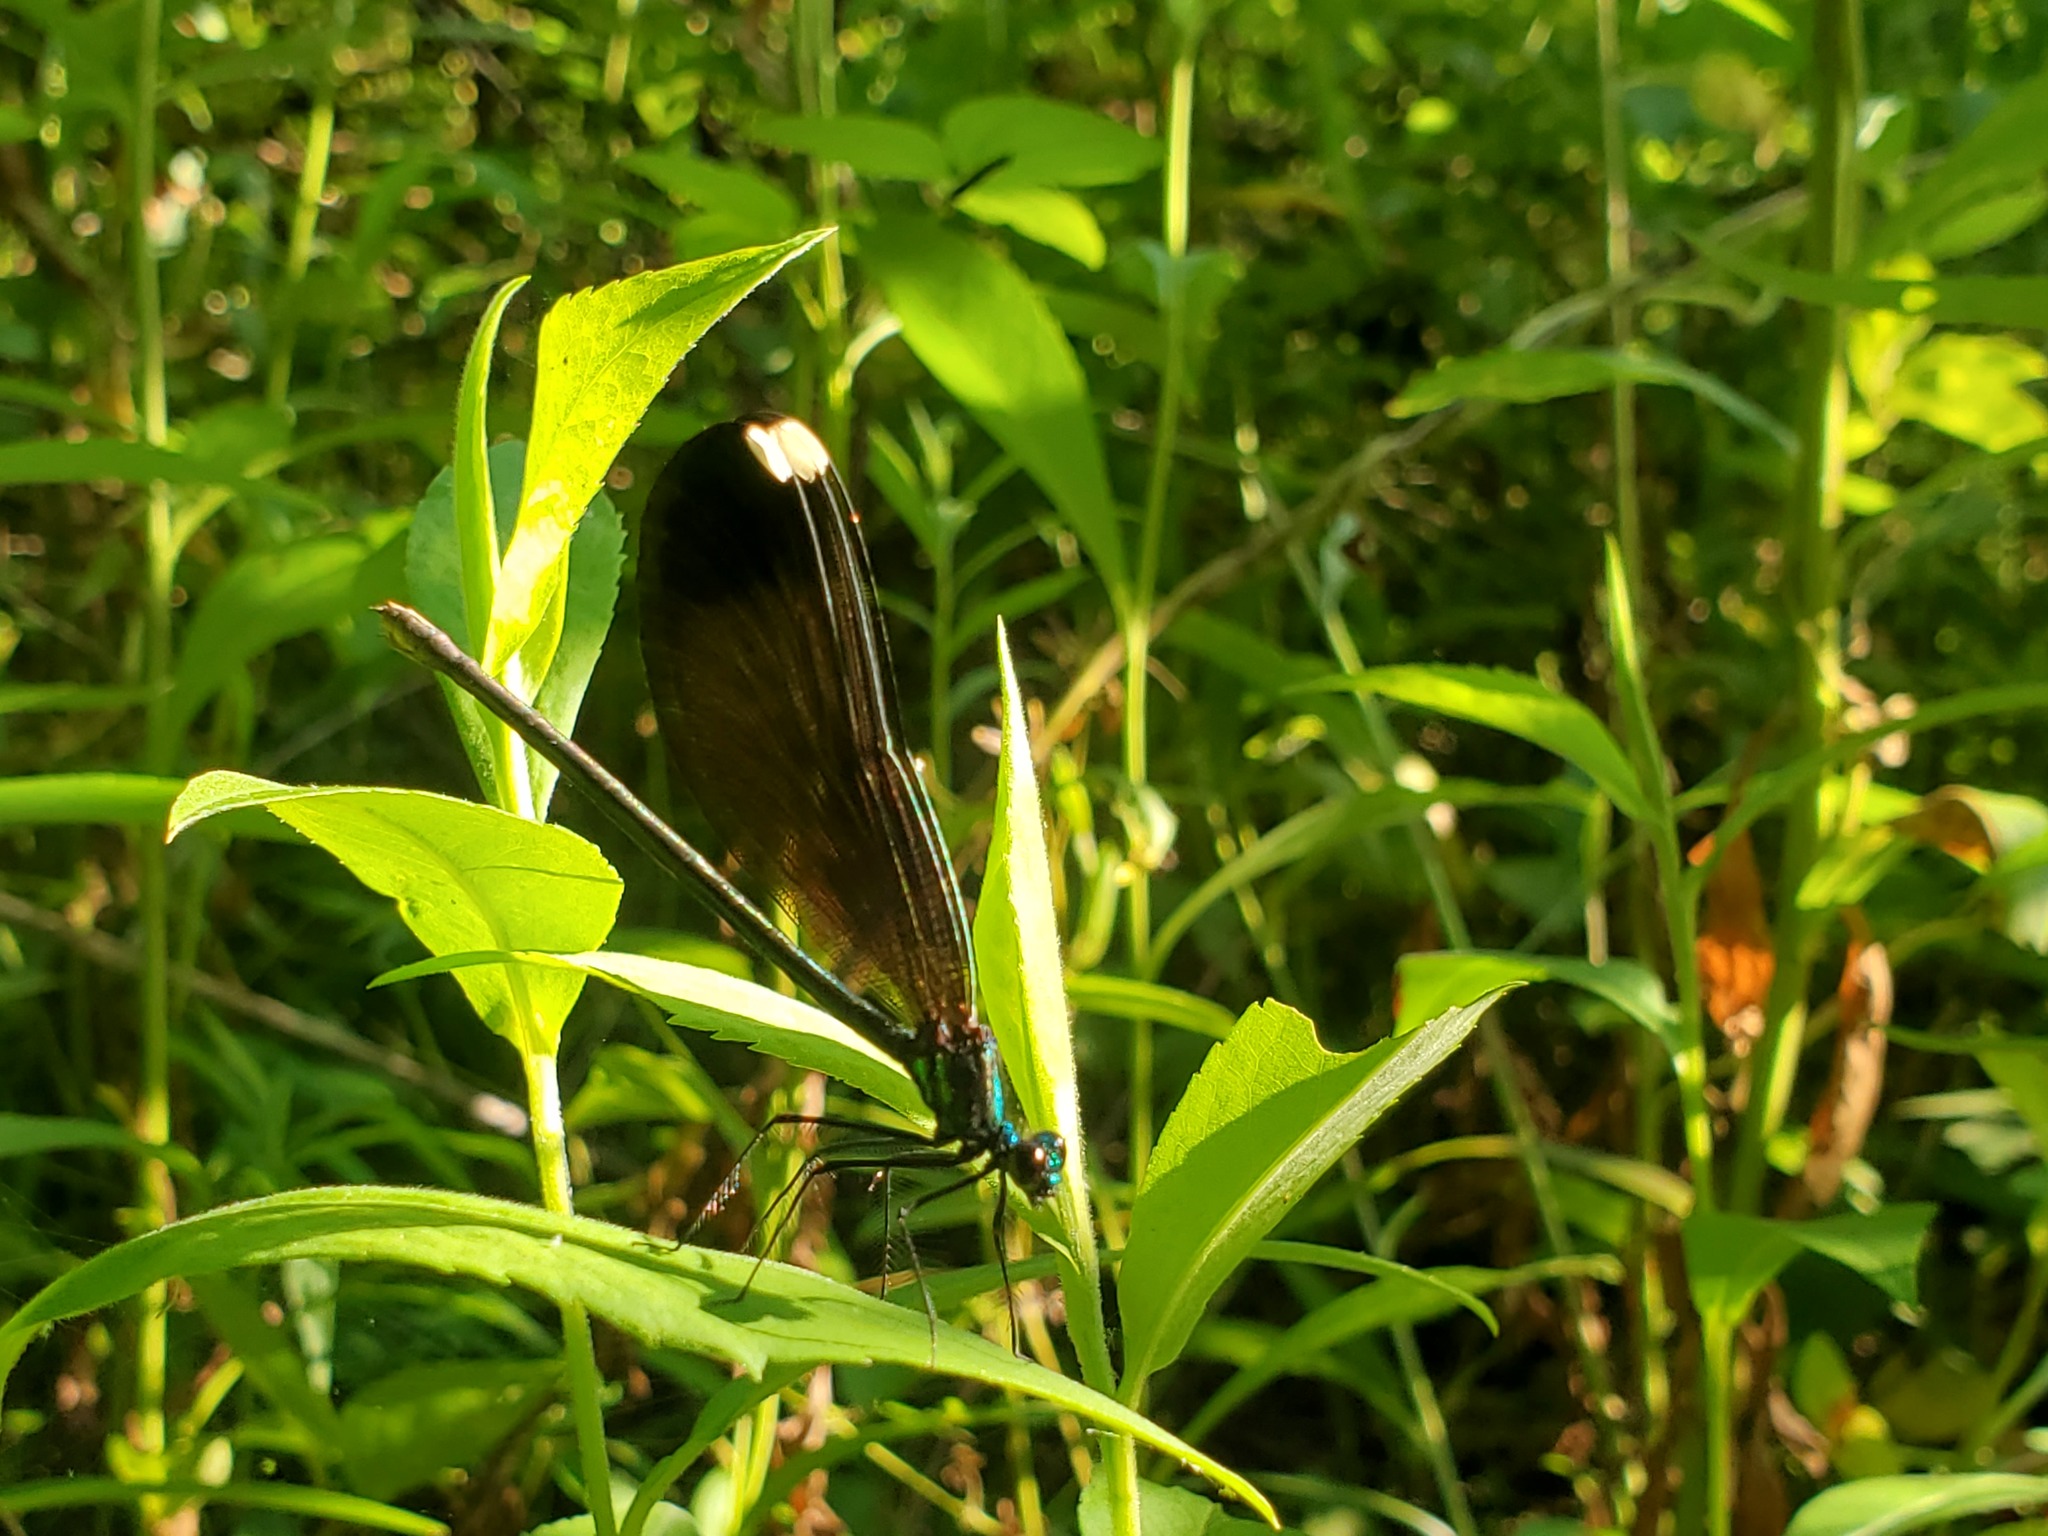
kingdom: Animalia
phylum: Arthropoda
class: Insecta
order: Odonata
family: Calopterygidae
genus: Calopteryx
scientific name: Calopteryx maculata
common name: Ebony jewelwing
